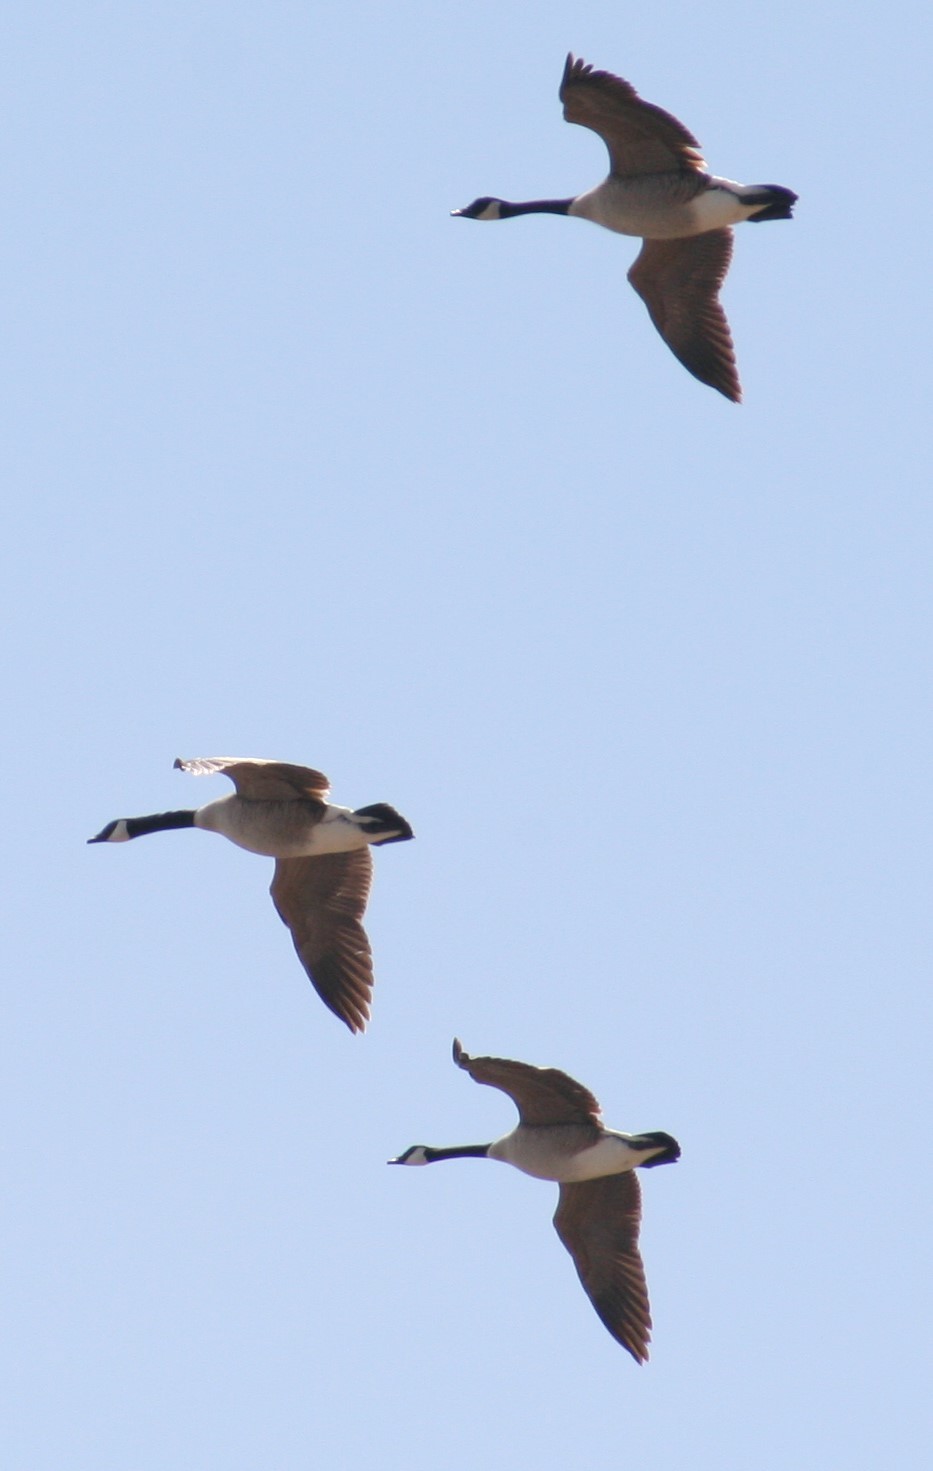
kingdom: Animalia
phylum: Chordata
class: Aves
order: Anseriformes
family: Anatidae
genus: Branta
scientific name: Branta canadensis
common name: Canada goose
